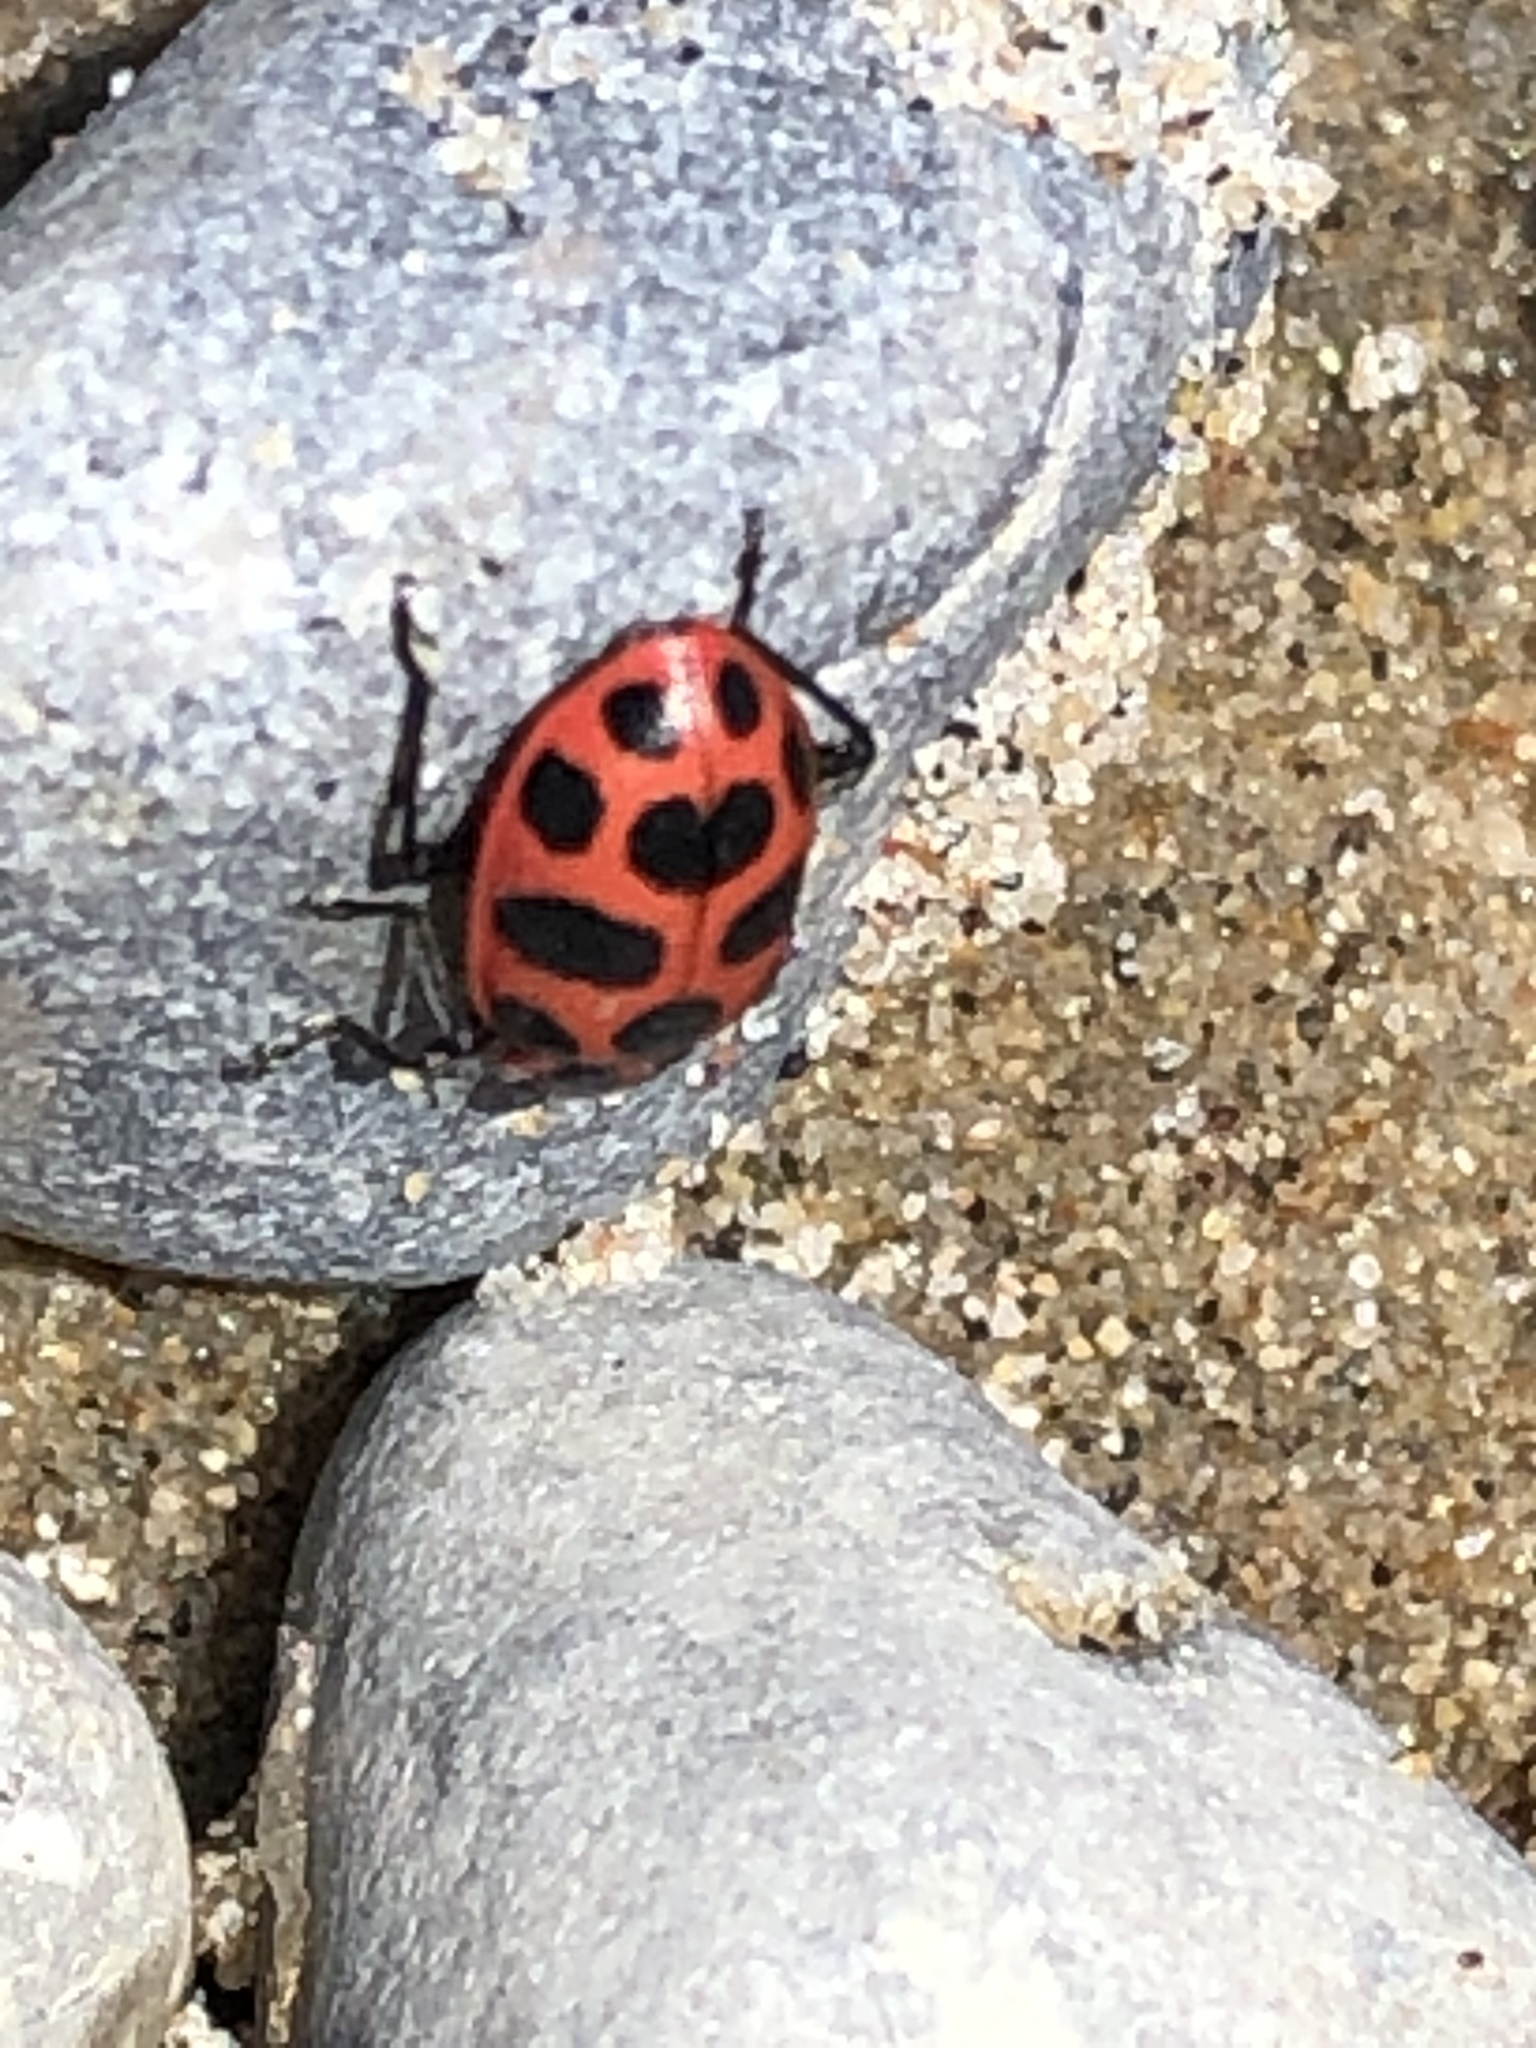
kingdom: Animalia
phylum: Arthropoda
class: Insecta
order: Coleoptera
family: Coccinellidae
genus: Coleomegilla
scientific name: Coleomegilla maculata
